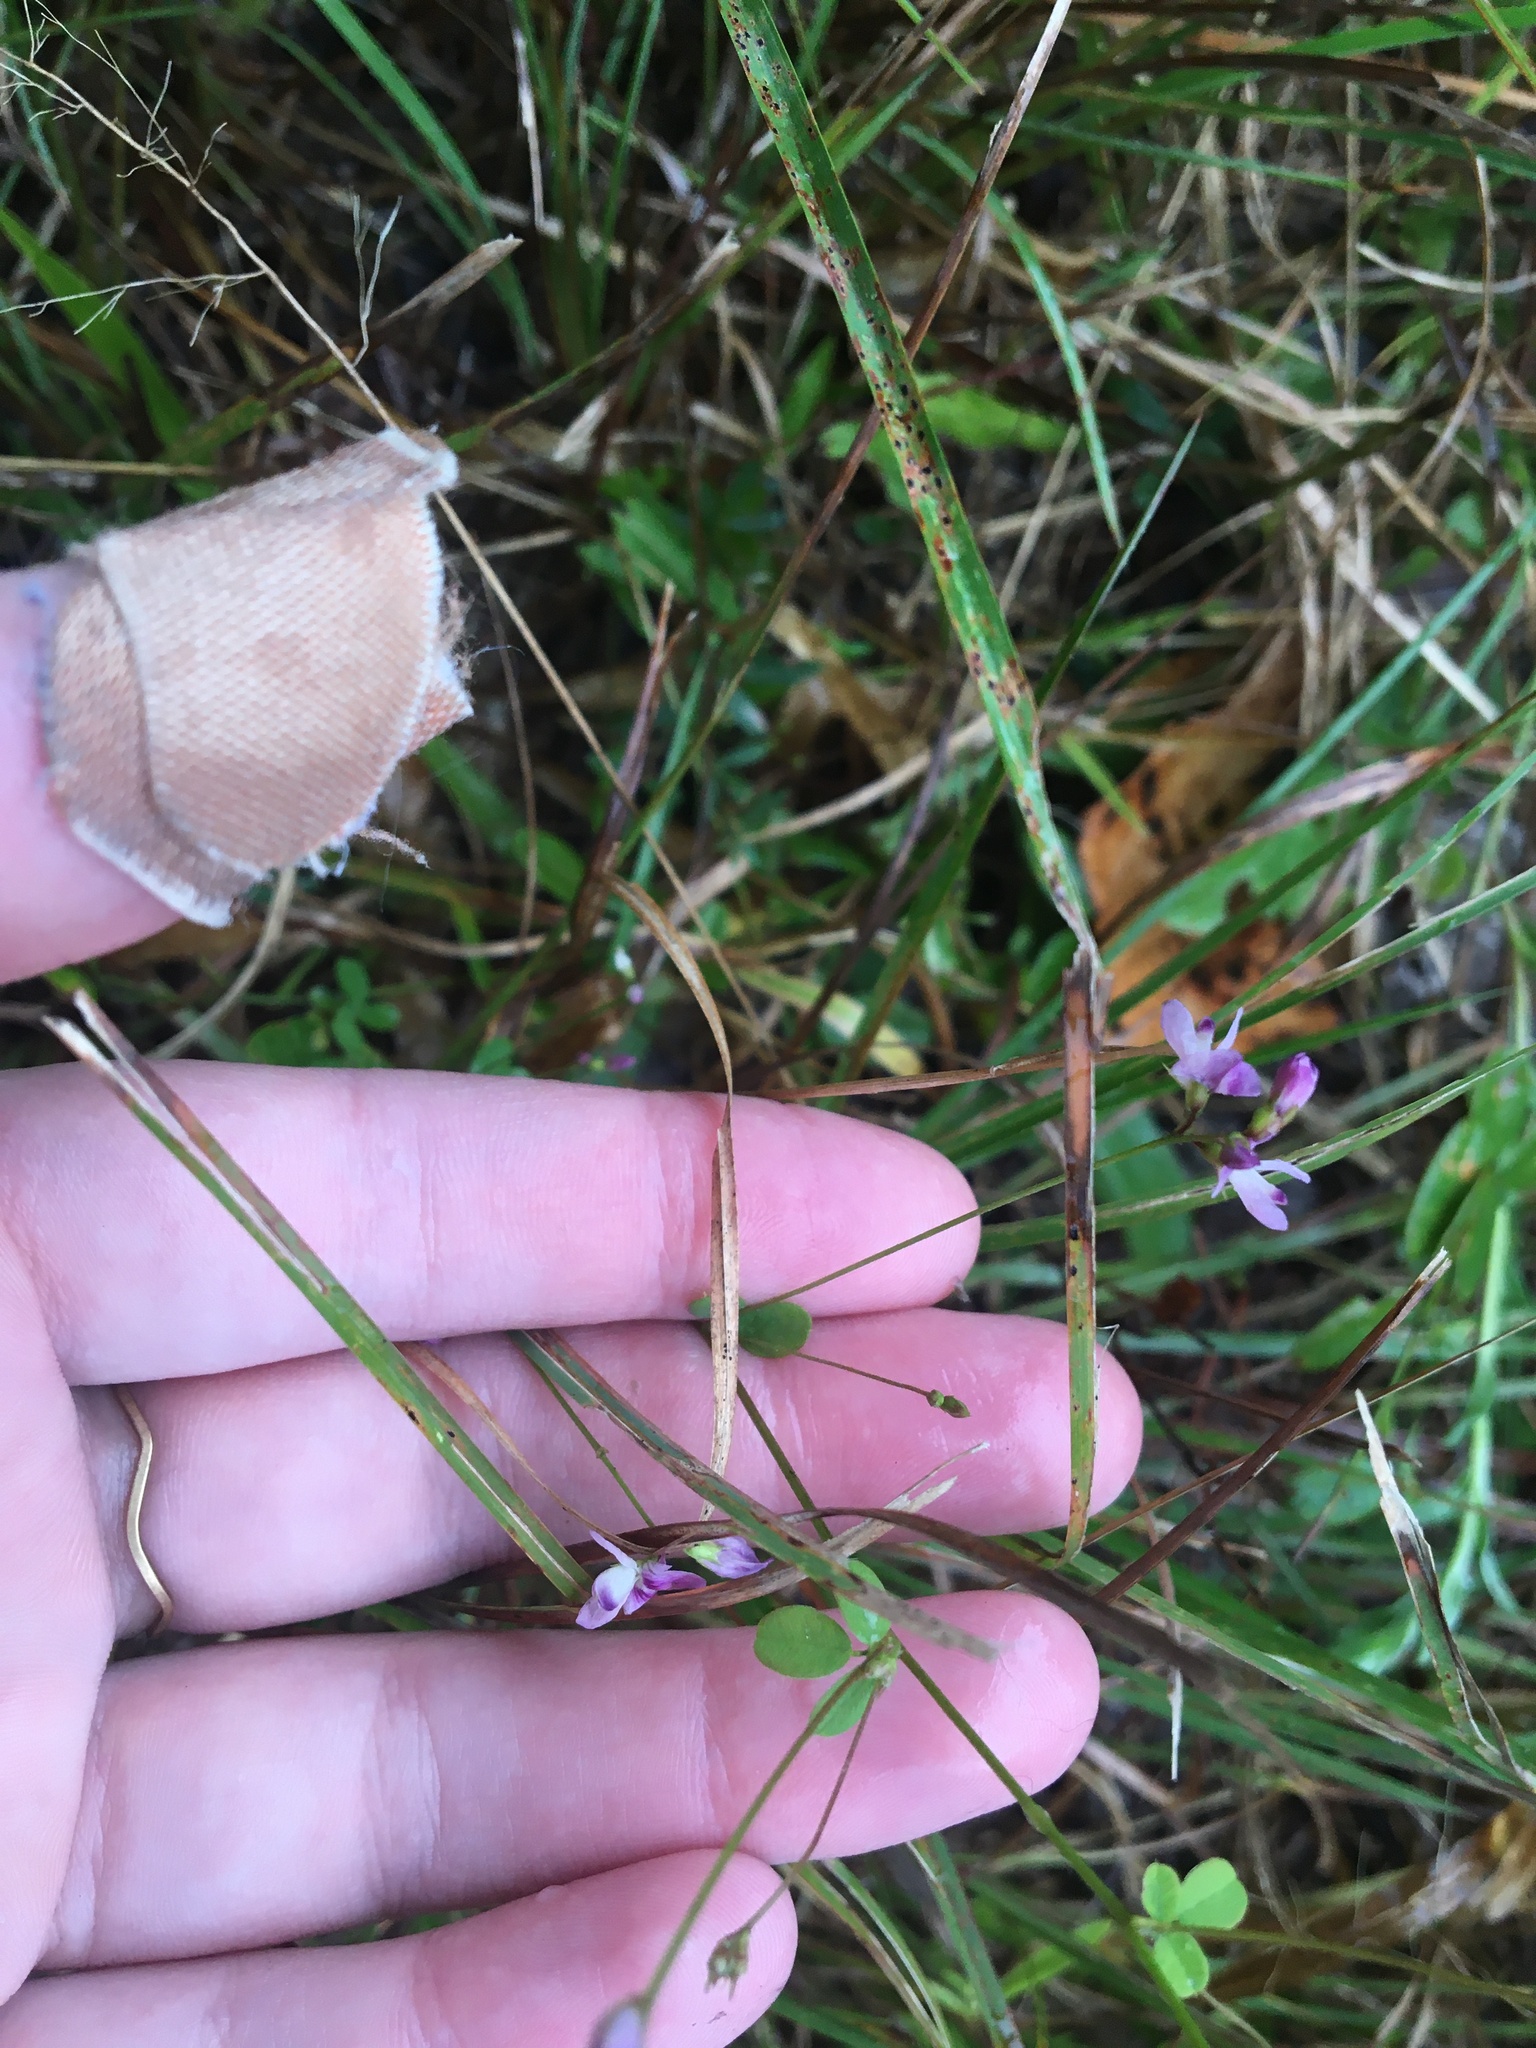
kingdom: Plantae
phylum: Tracheophyta
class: Magnoliopsida
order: Fabales
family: Fabaceae
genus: Lespedeza
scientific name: Lespedeza repens
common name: Creeping bush-clover
